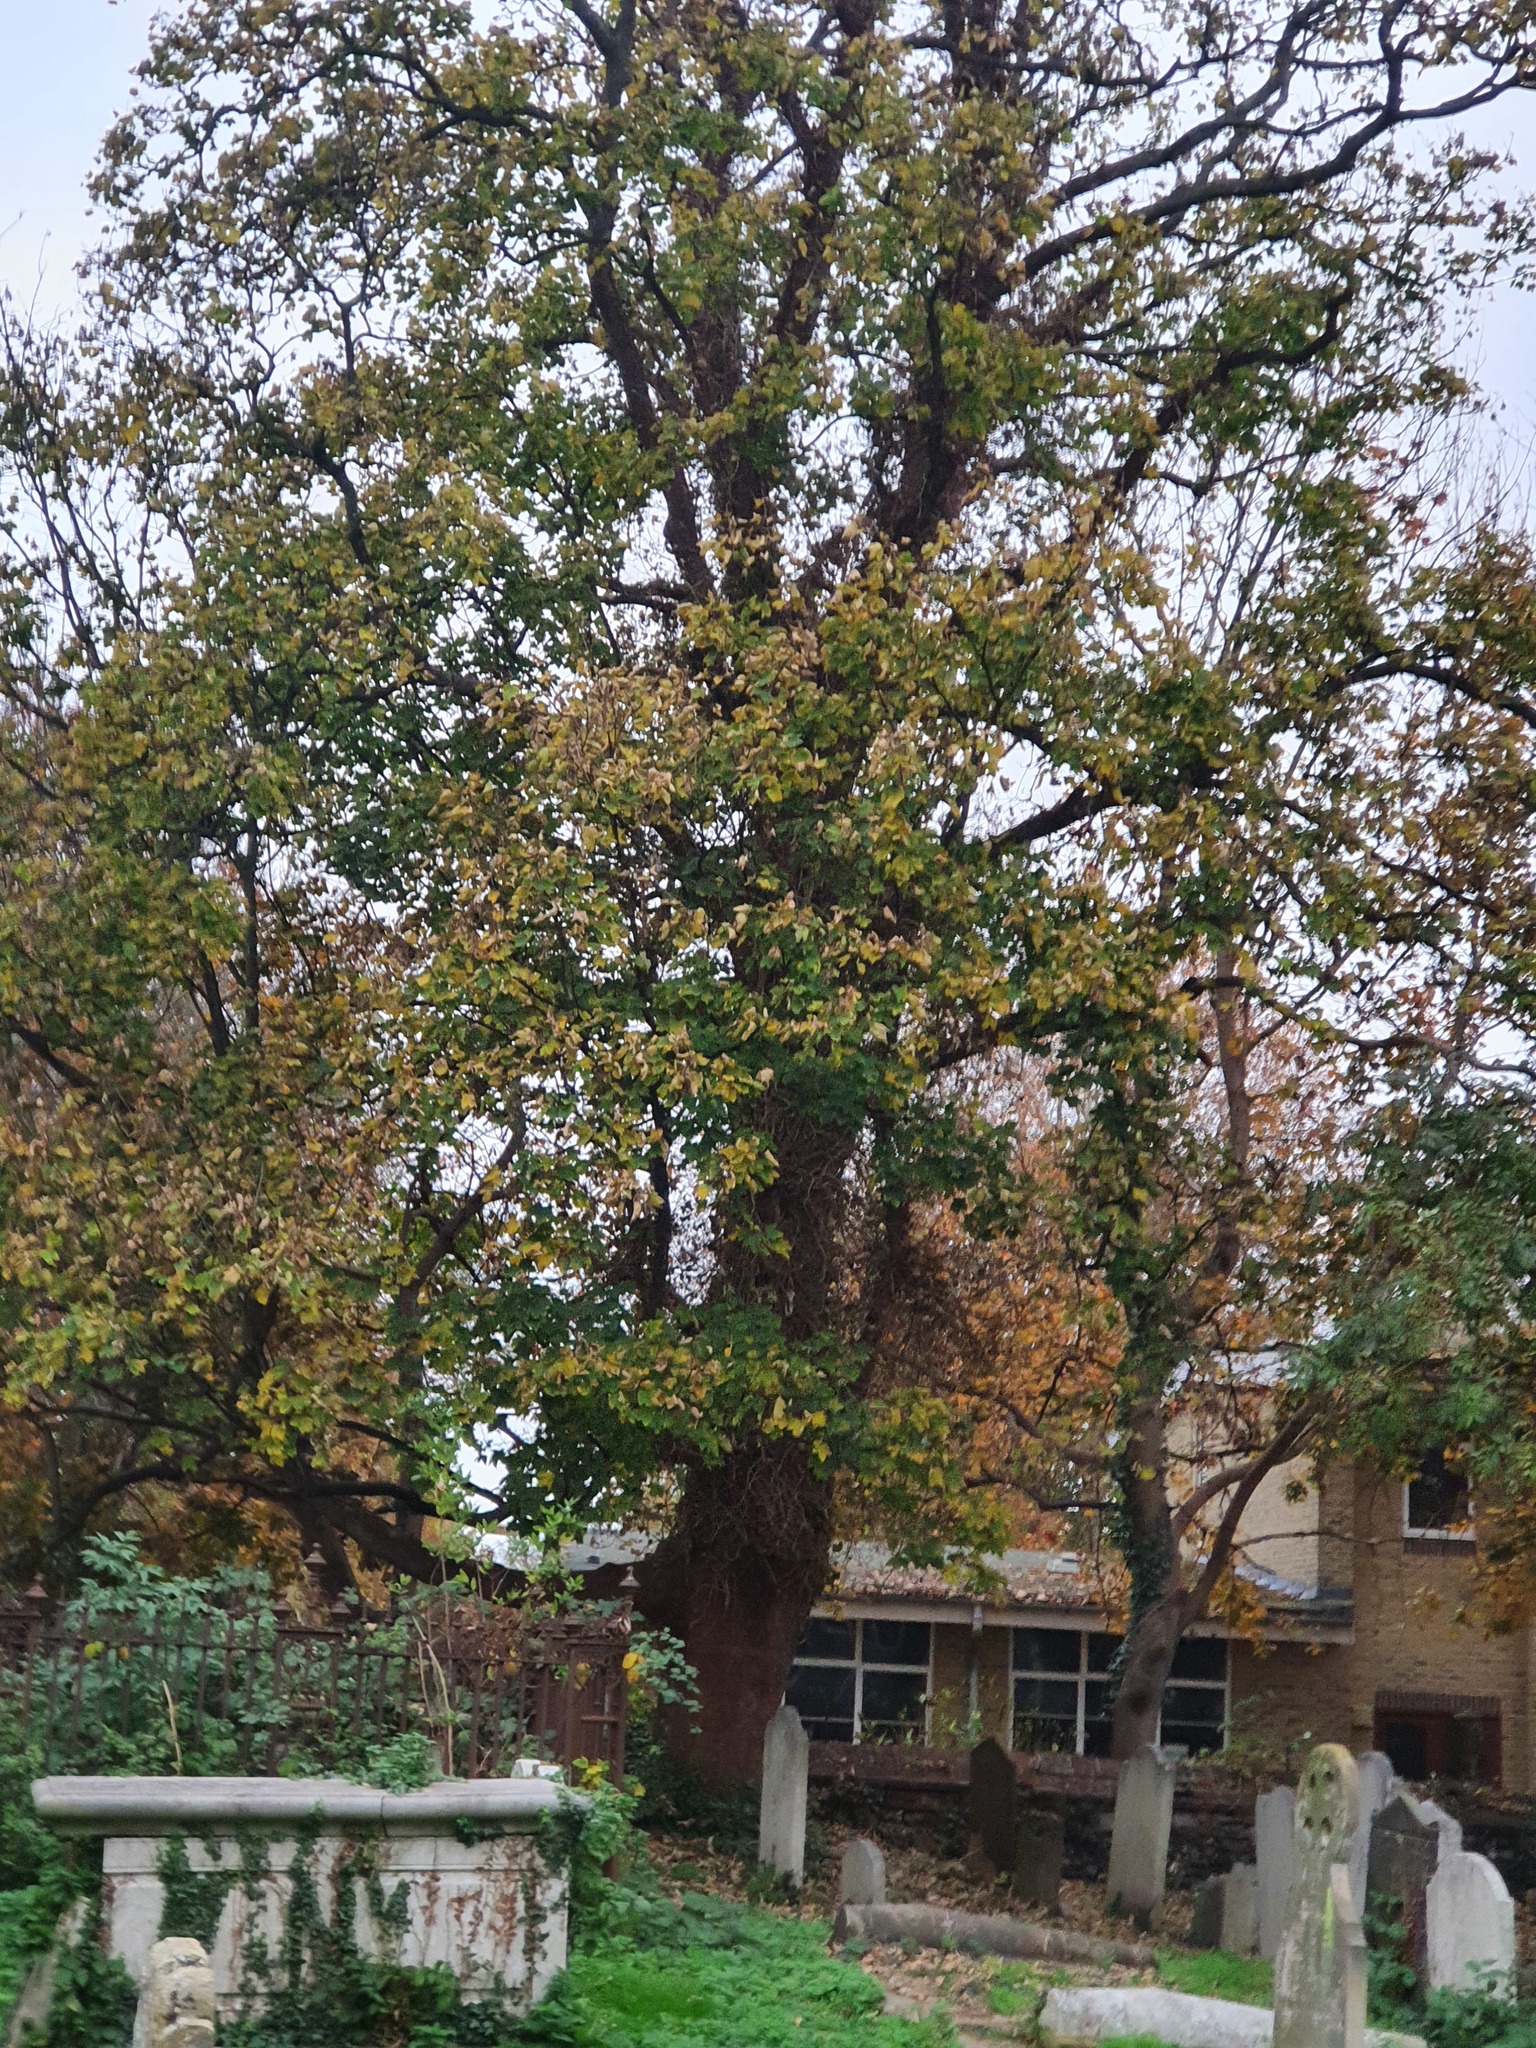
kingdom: Plantae
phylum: Tracheophyta
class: Magnoliopsida
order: Sapindales
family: Sapindaceae
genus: Acer
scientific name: Acer pseudoplatanus
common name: Sycamore
